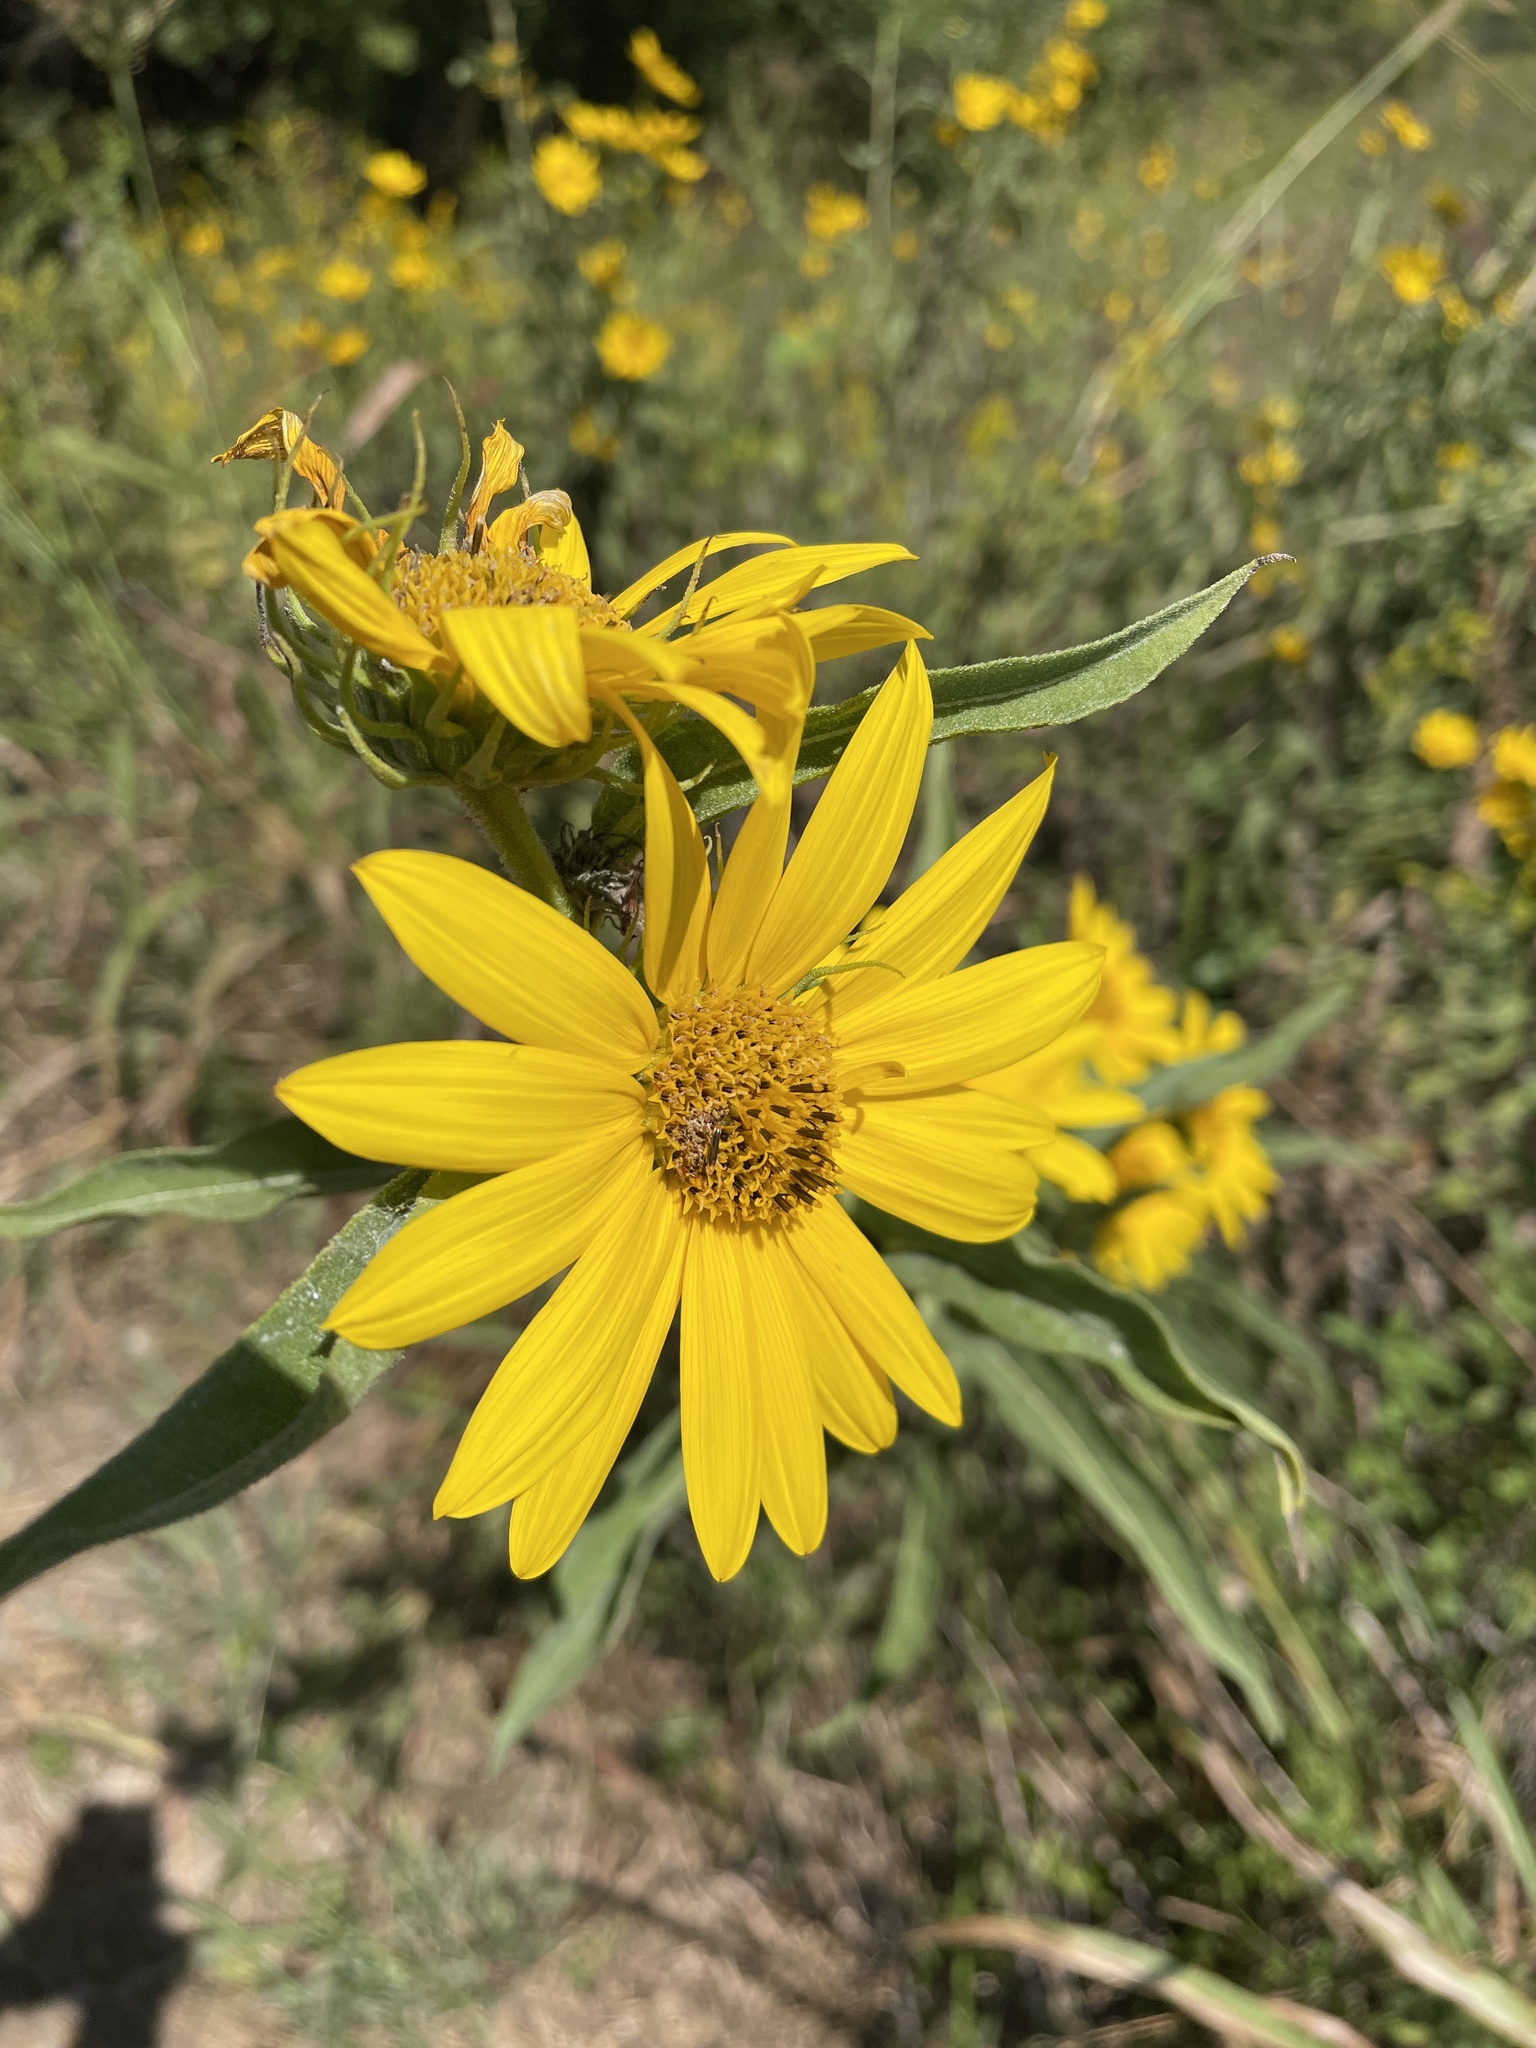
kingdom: Plantae
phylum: Tracheophyta
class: Magnoliopsida
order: Asterales
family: Asteraceae
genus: Helianthus
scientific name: Helianthus maximiliani
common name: Maximilian's sunflower
